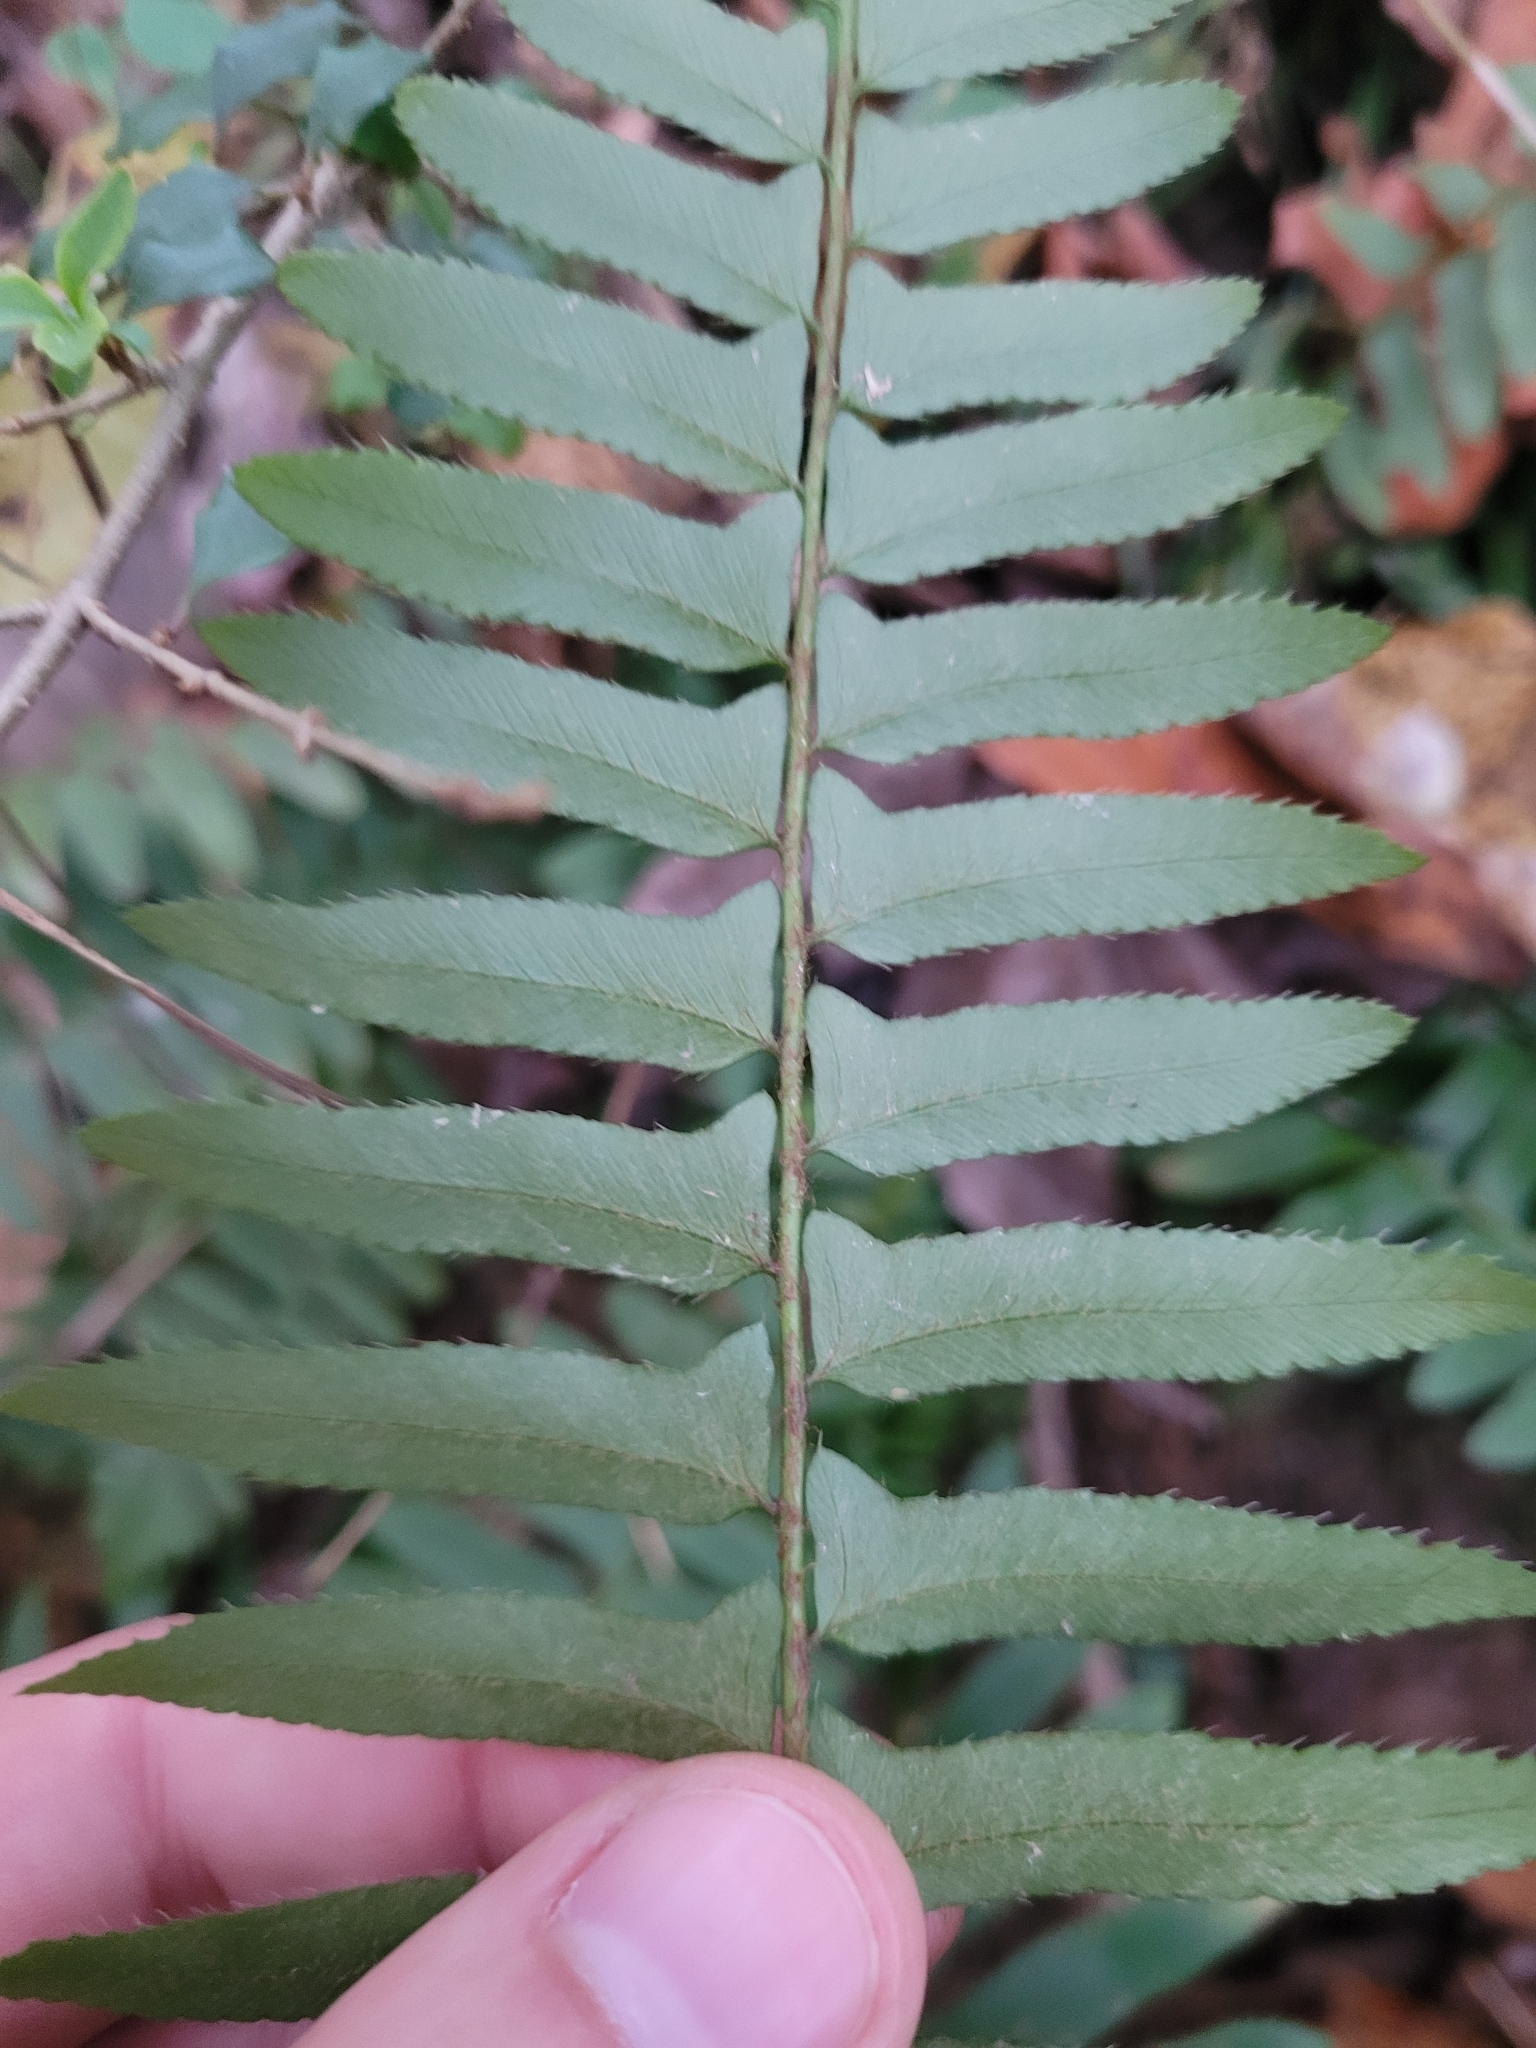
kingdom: Plantae
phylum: Tracheophyta
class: Polypodiopsida
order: Polypodiales
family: Dryopteridaceae
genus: Polystichum
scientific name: Polystichum acrostichoides
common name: Christmas fern
